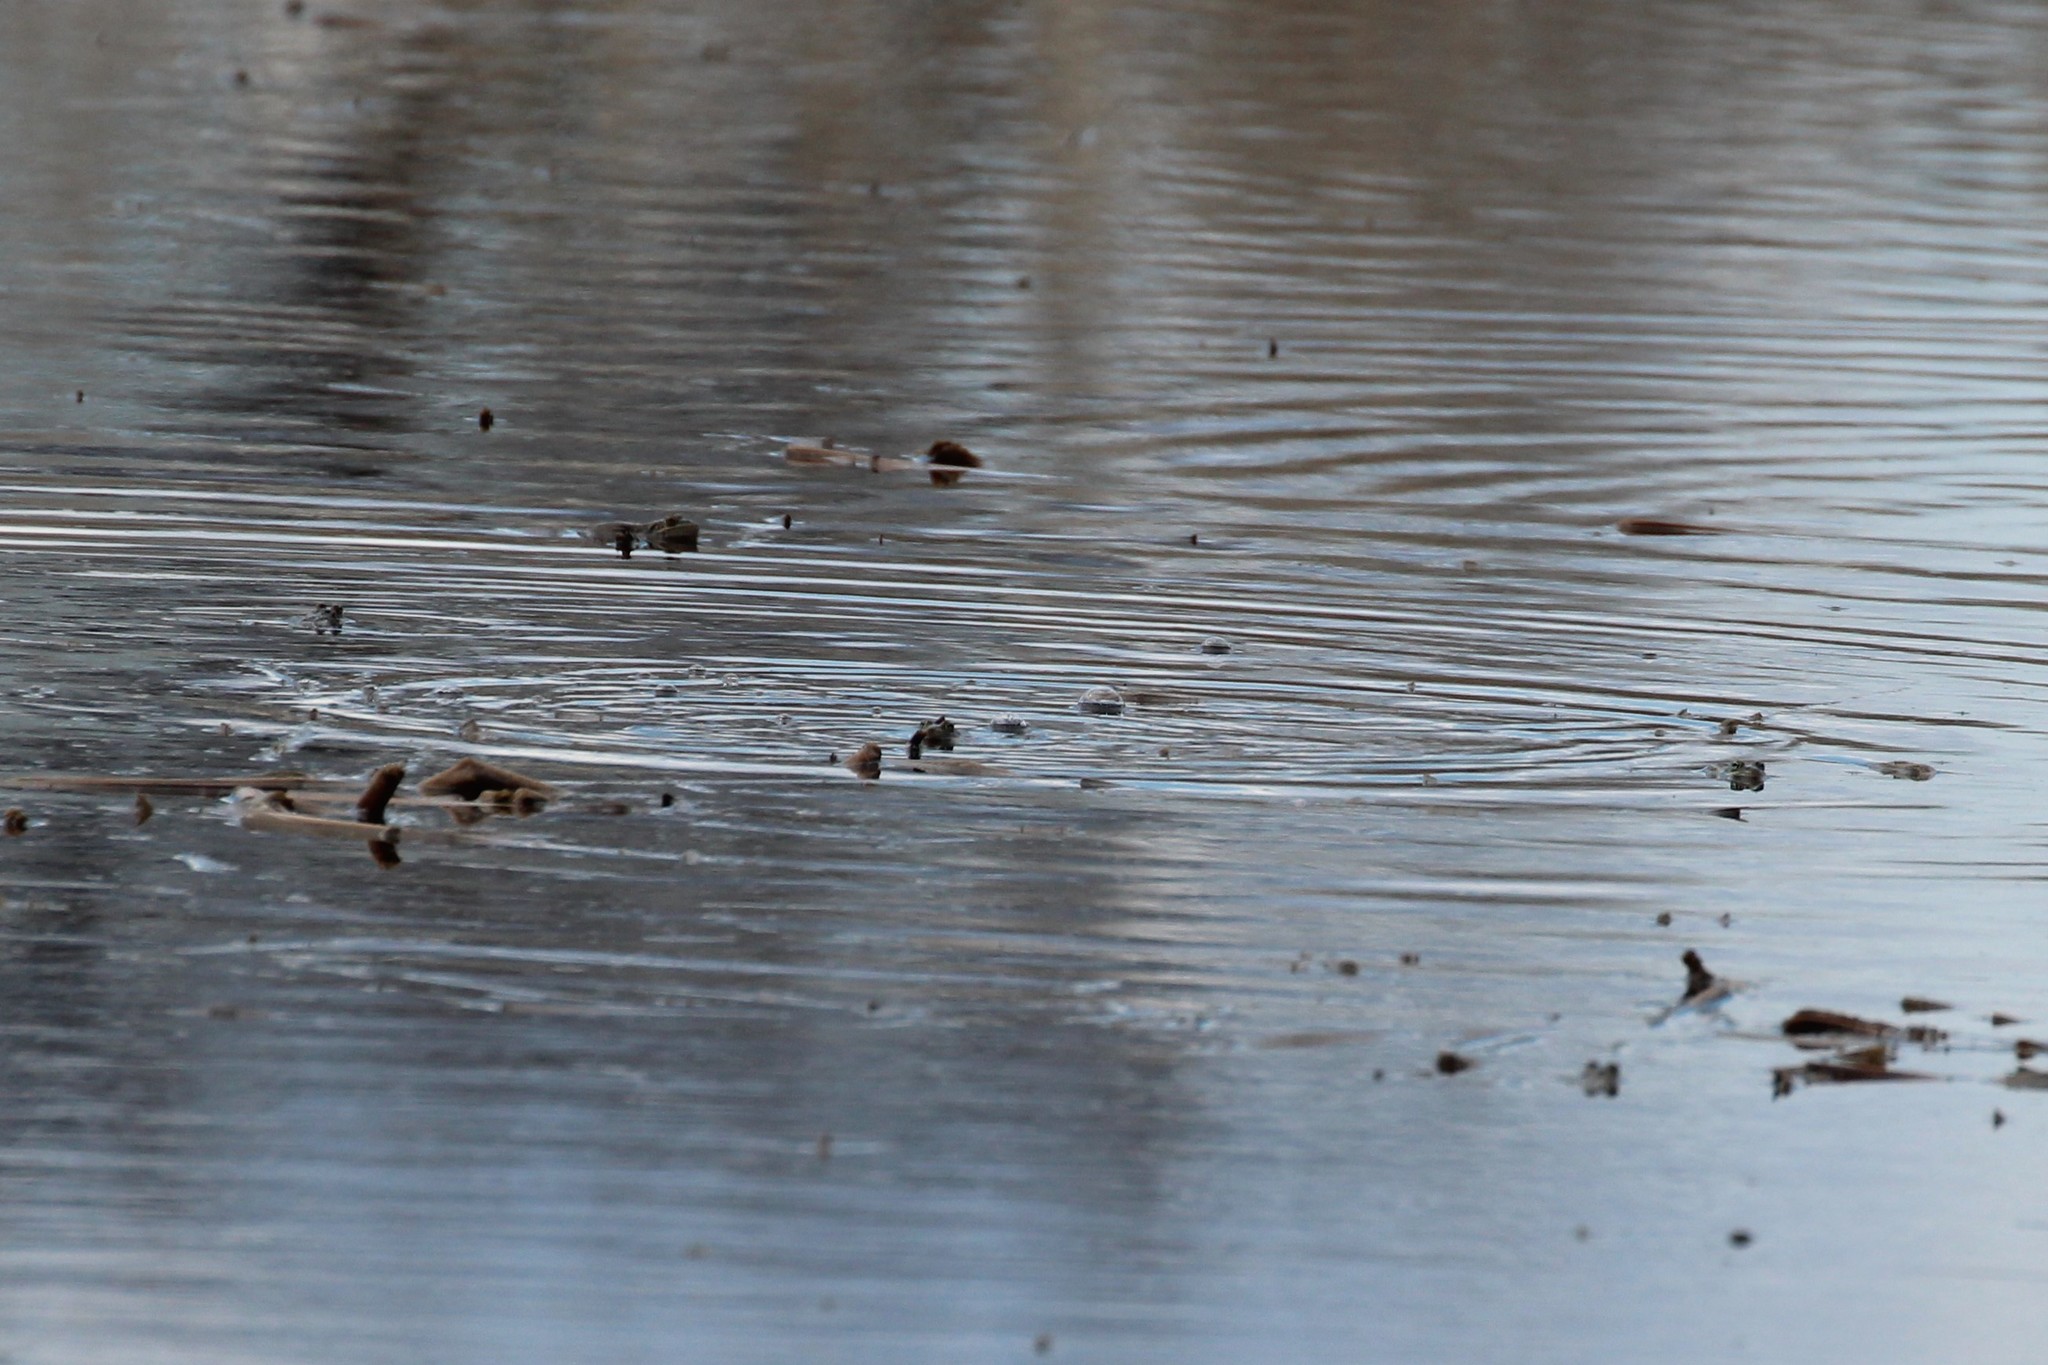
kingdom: Animalia
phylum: Chordata
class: Amphibia
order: Anura
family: Ranidae
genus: Lithobates
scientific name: Lithobates pipiens
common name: Northern leopard frog
